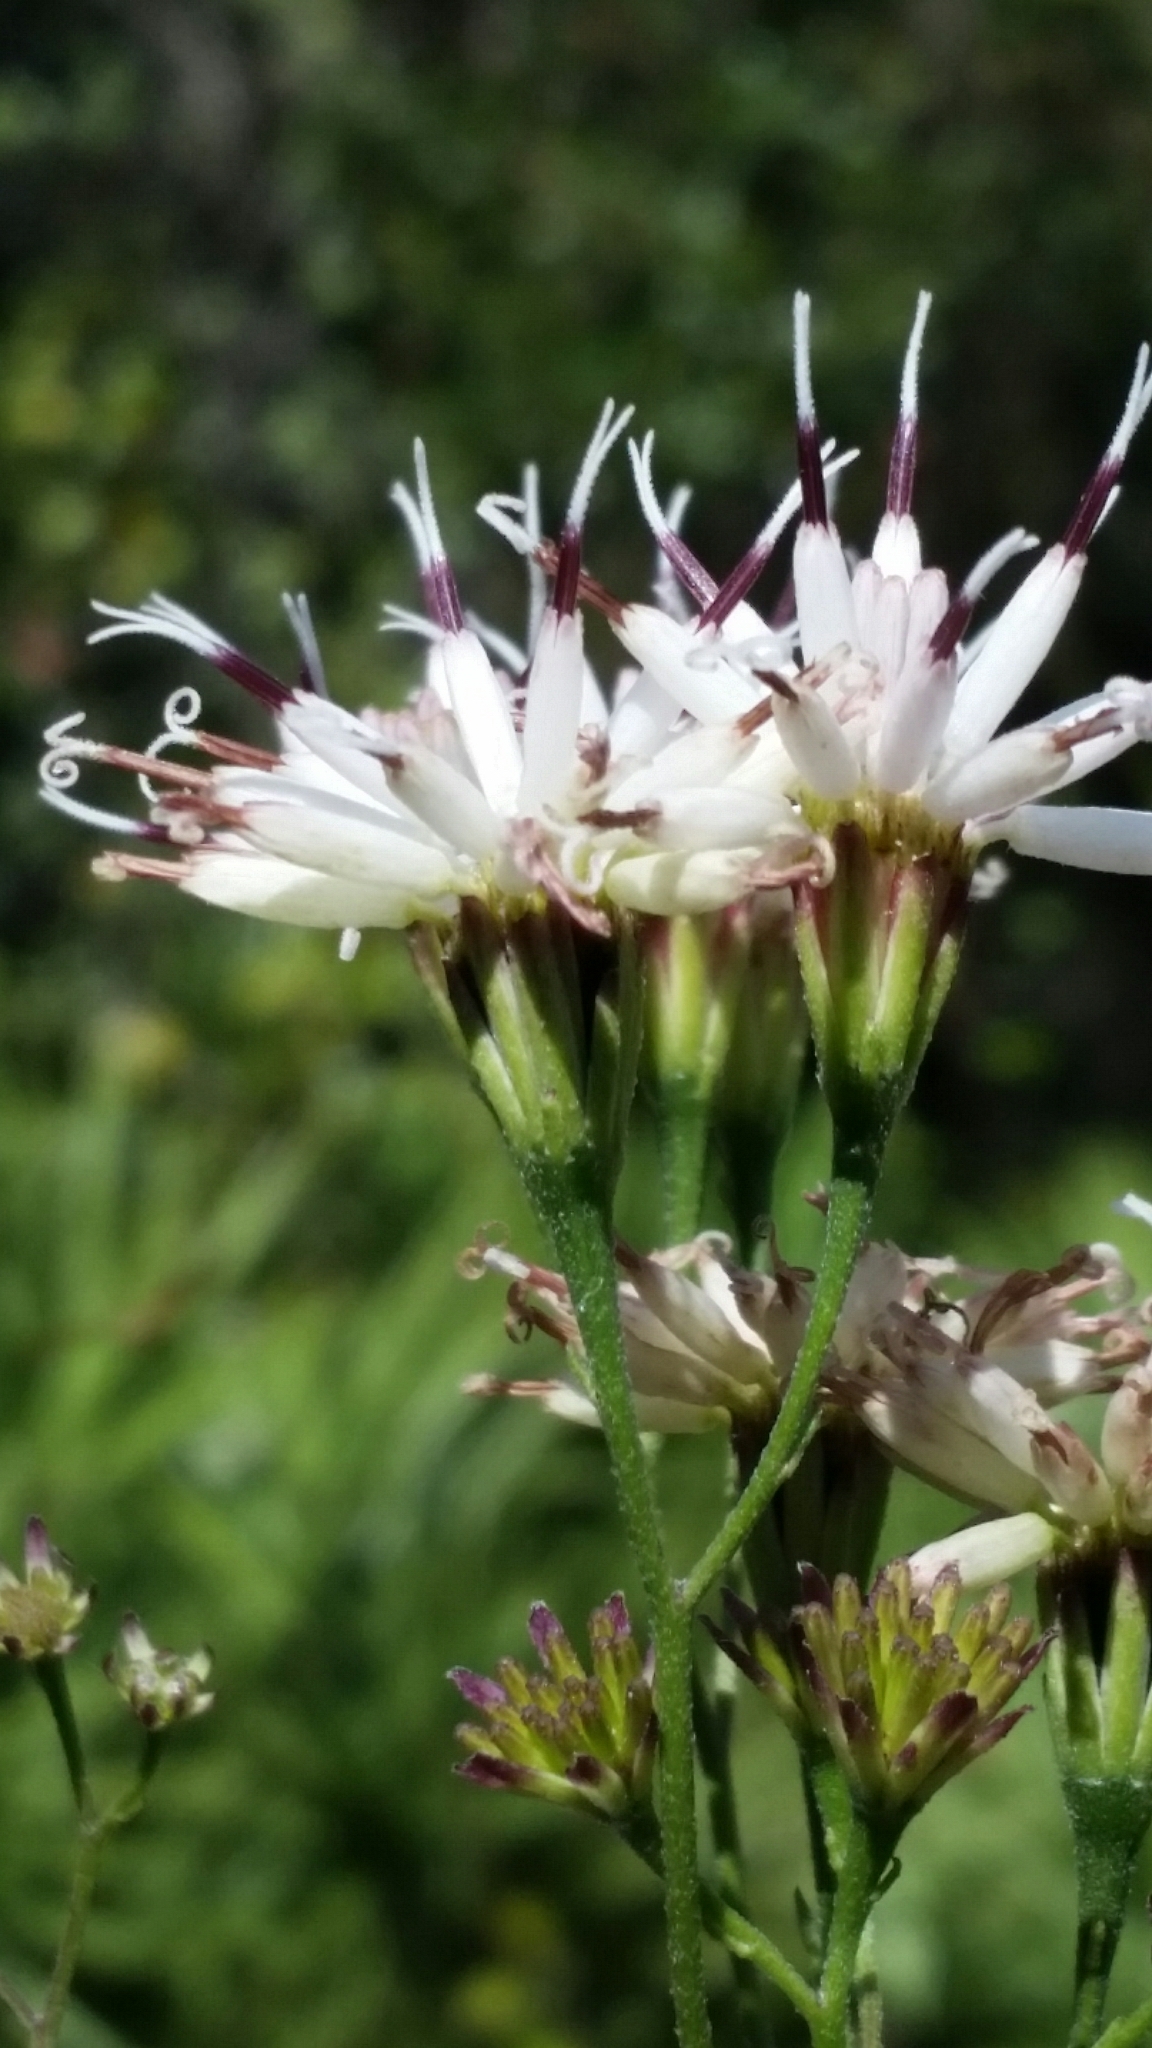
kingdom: Plantae
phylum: Tracheophyta
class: Magnoliopsida
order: Asterales
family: Asteraceae
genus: Palafoxia
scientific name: Palafoxia feayi
